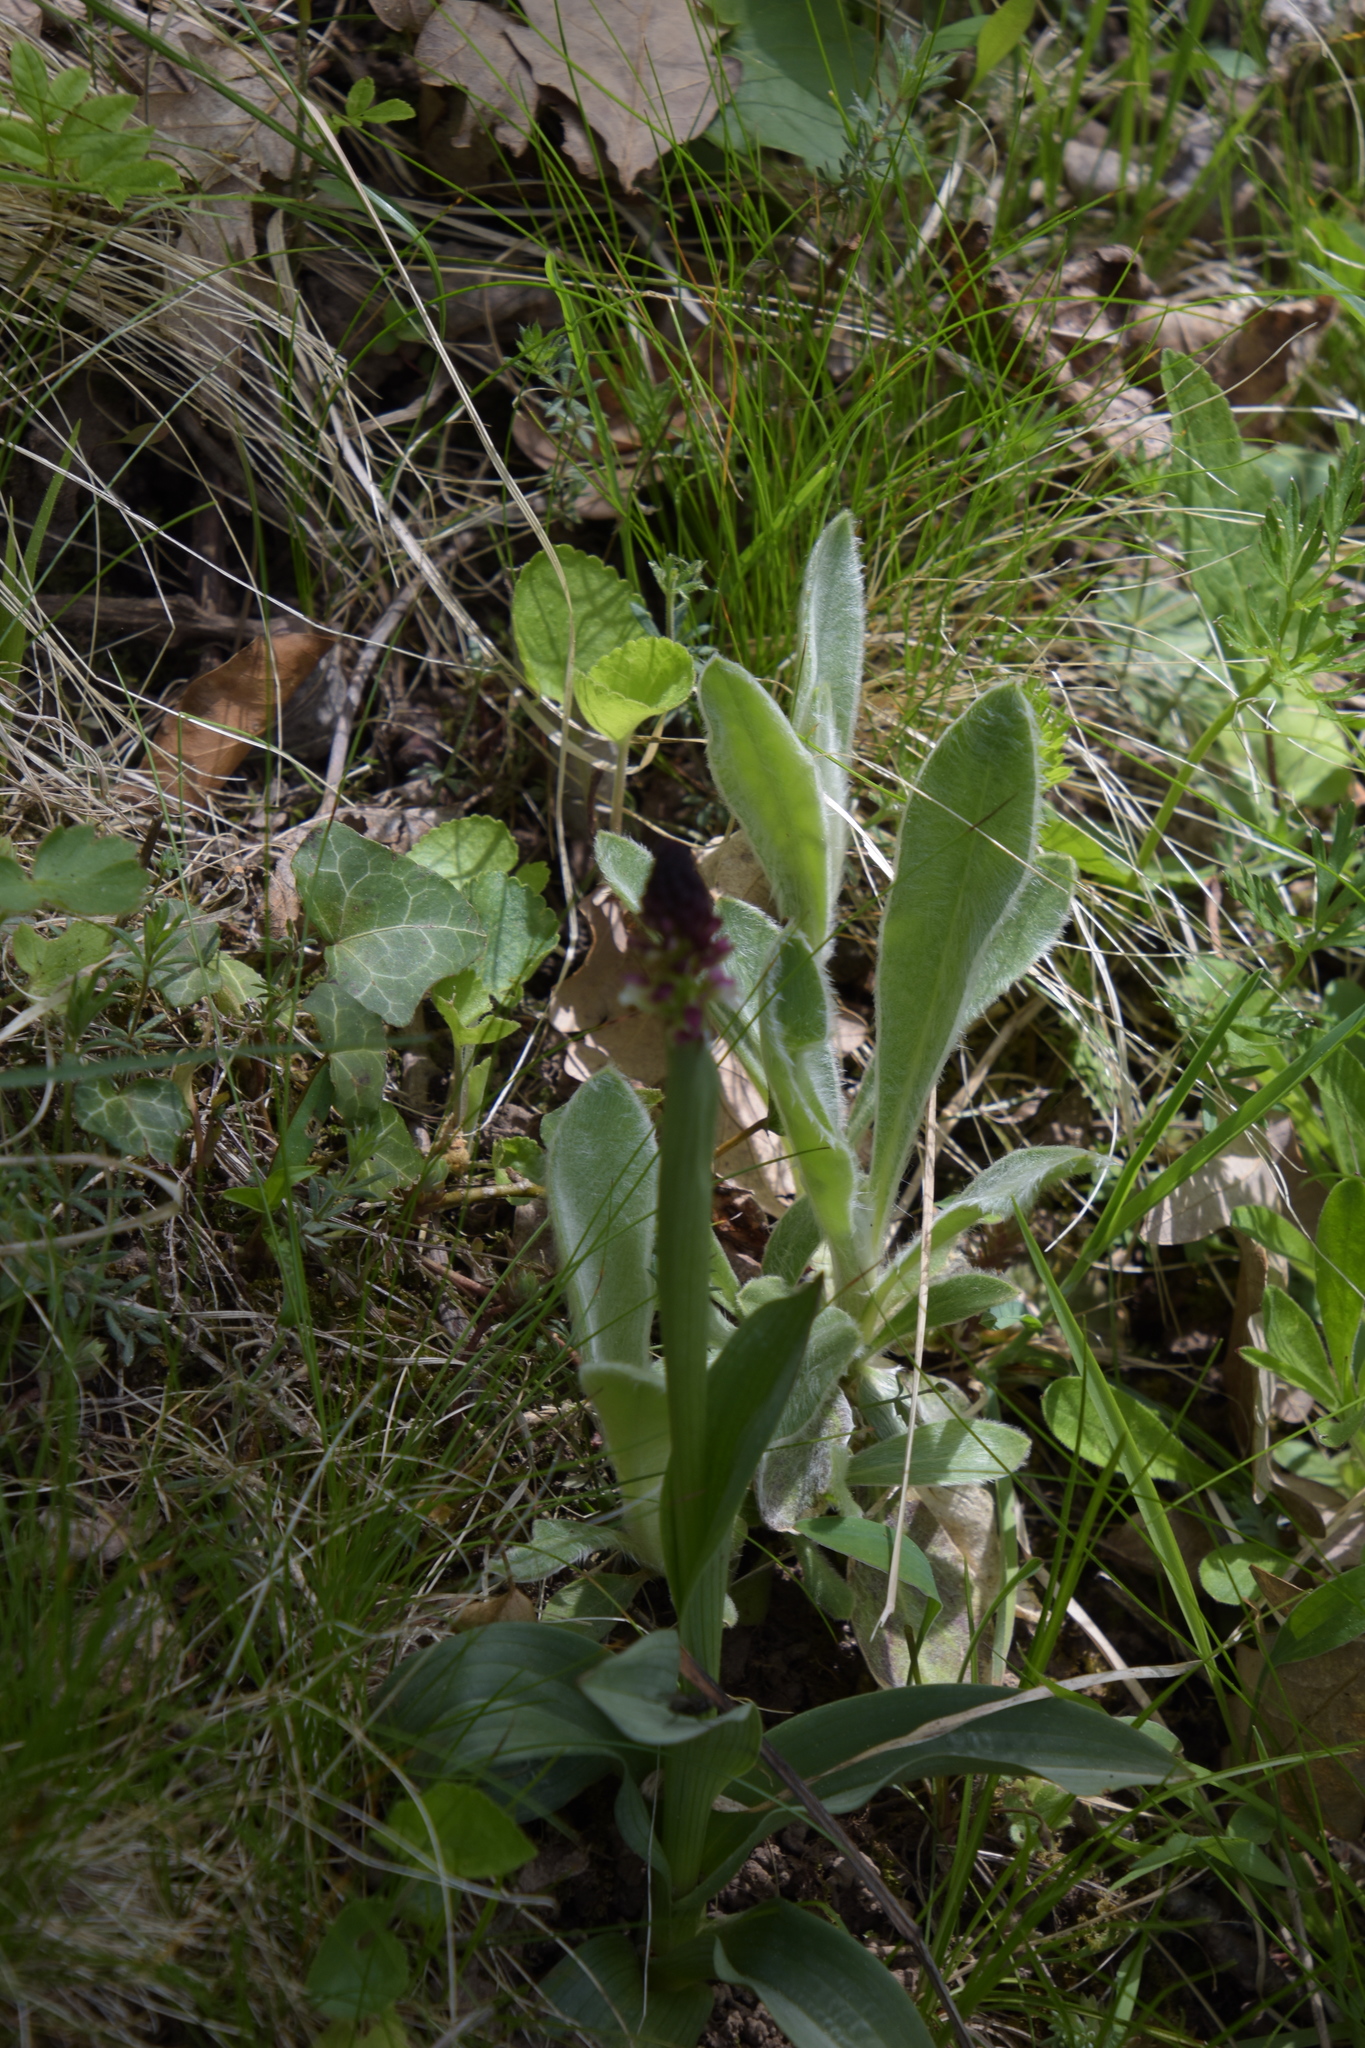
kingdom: Plantae
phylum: Tracheophyta
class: Liliopsida
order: Asparagales
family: Orchidaceae
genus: Neotinea
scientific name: Neotinea ustulata
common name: Burnt orchid
